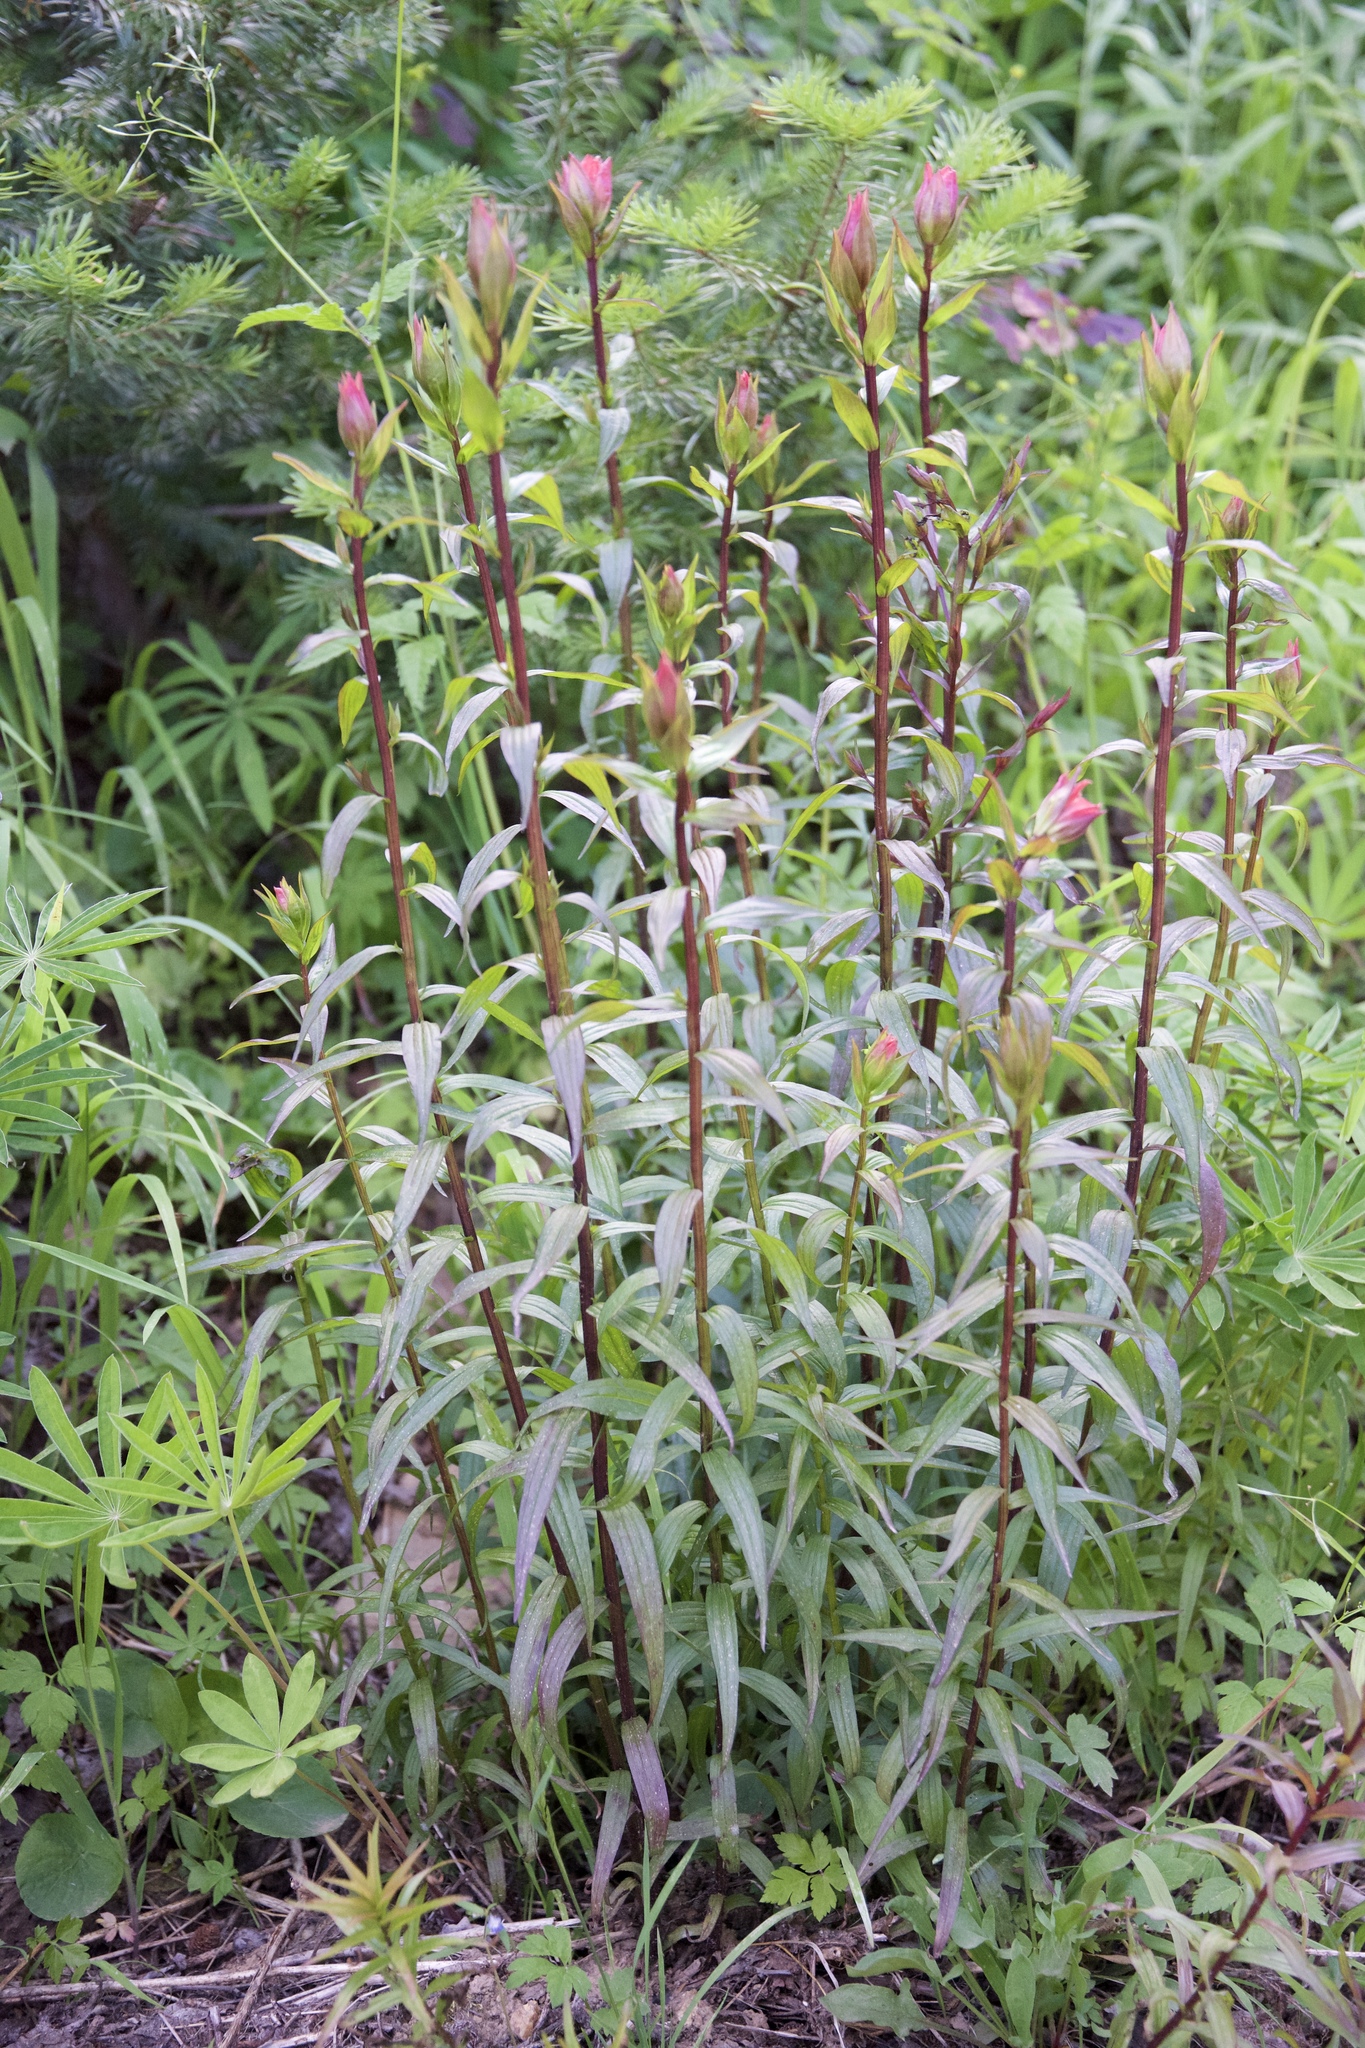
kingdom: Plantae
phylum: Tracheophyta
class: Magnoliopsida
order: Lamiales
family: Orobanchaceae
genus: Castilleja
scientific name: Castilleja miniata
